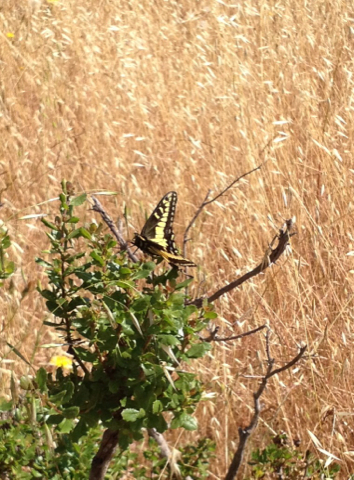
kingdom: Animalia
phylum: Arthropoda
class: Insecta
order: Lepidoptera
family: Papilionidae
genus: Papilio
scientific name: Papilio zelicaon
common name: Anise swallowtail
